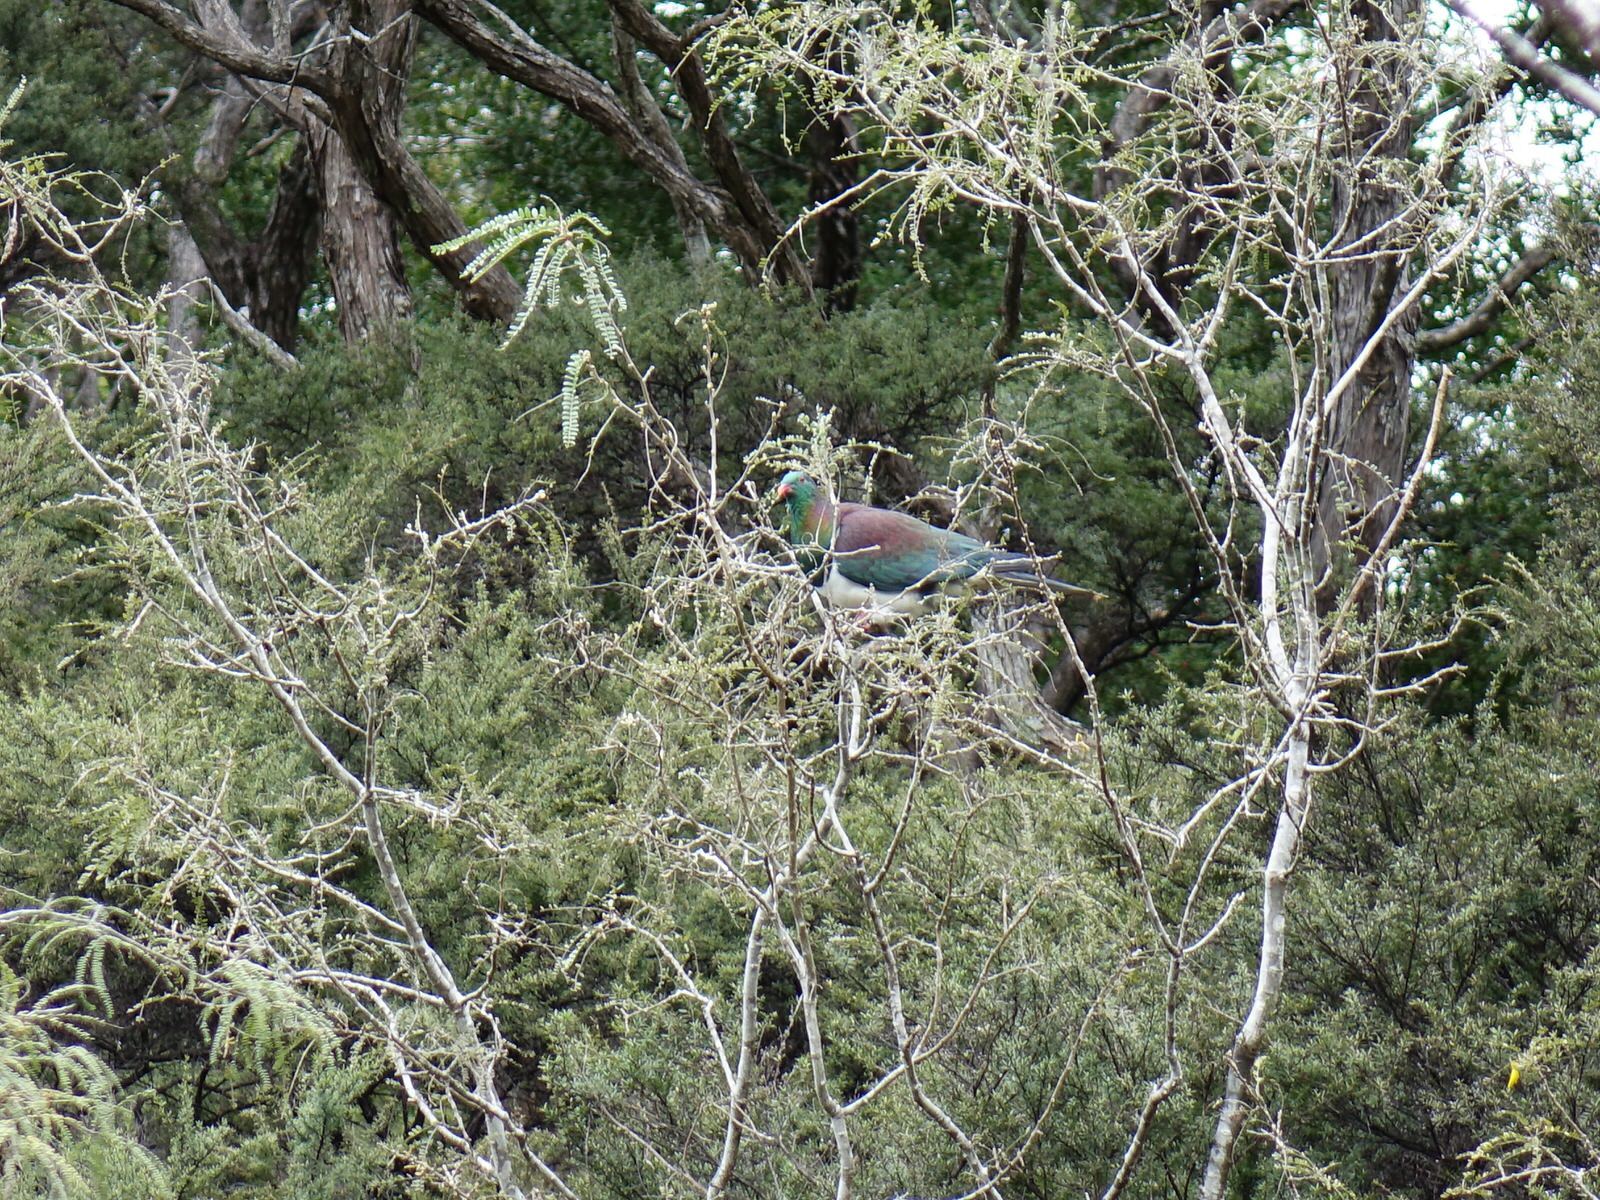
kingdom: Animalia
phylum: Chordata
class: Aves
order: Columbiformes
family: Columbidae
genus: Hemiphaga
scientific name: Hemiphaga novaeseelandiae
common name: New zealand pigeon
